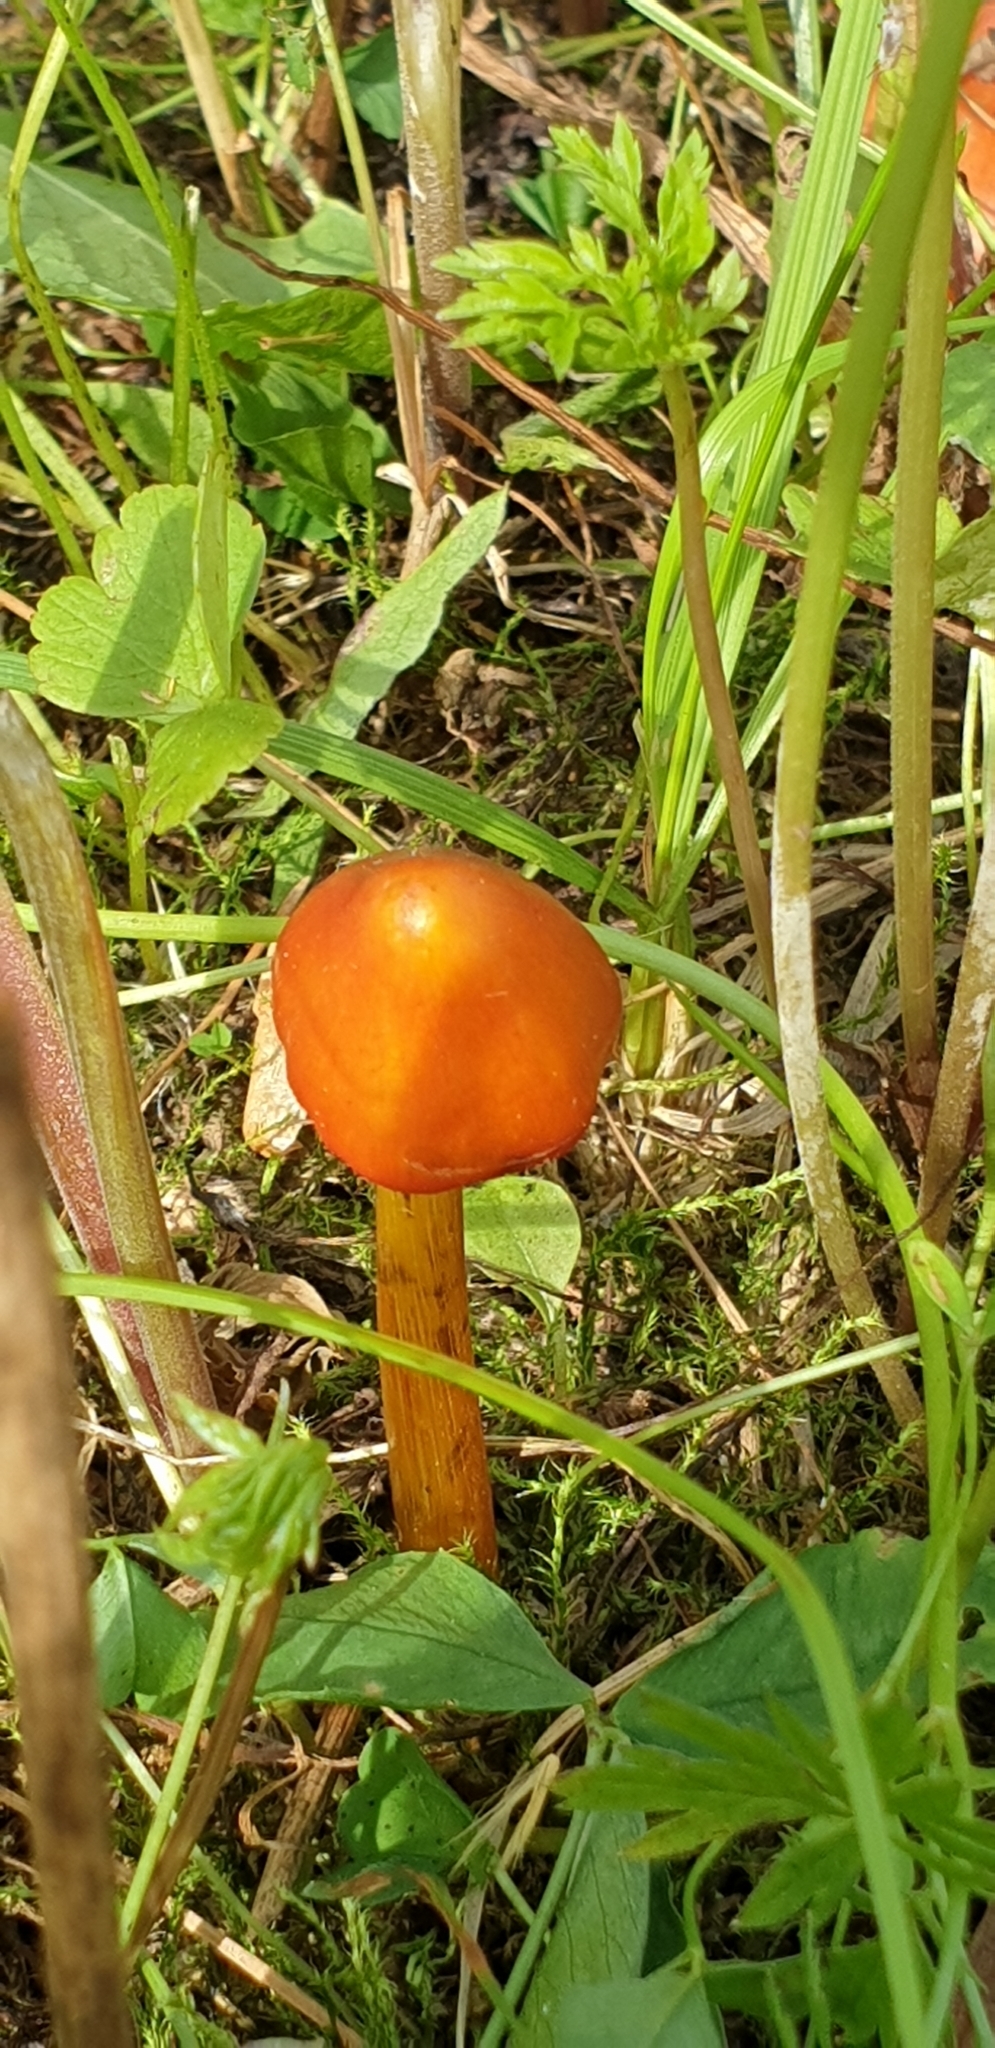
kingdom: Fungi
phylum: Basidiomycota
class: Agaricomycetes
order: Agaricales
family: Hygrophoraceae
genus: Hygrocybe
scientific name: Hygrocybe conica
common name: Blackening wax-cap
